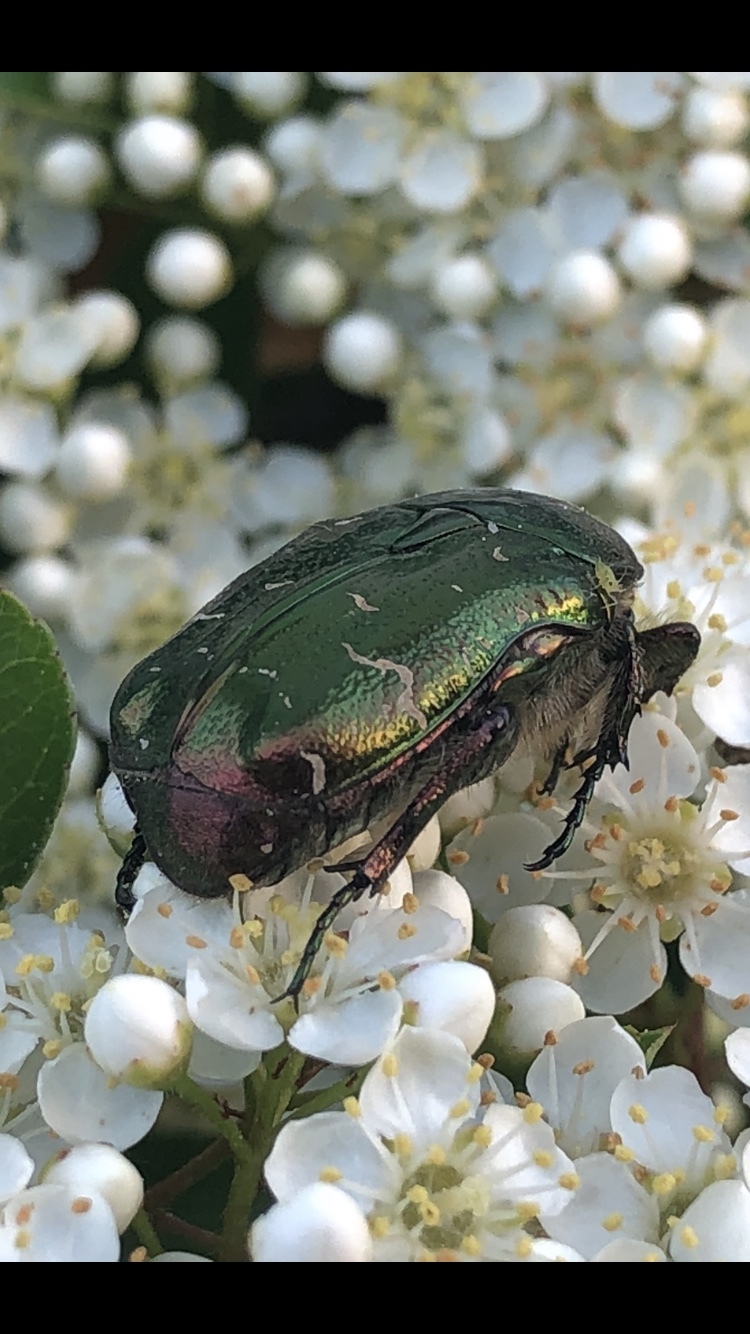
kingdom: Animalia
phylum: Arthropoda
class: Insecta
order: Coleoptera
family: Scarabaeidae
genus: Cetonia
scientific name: Cetonia aurata
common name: Rose chafer
